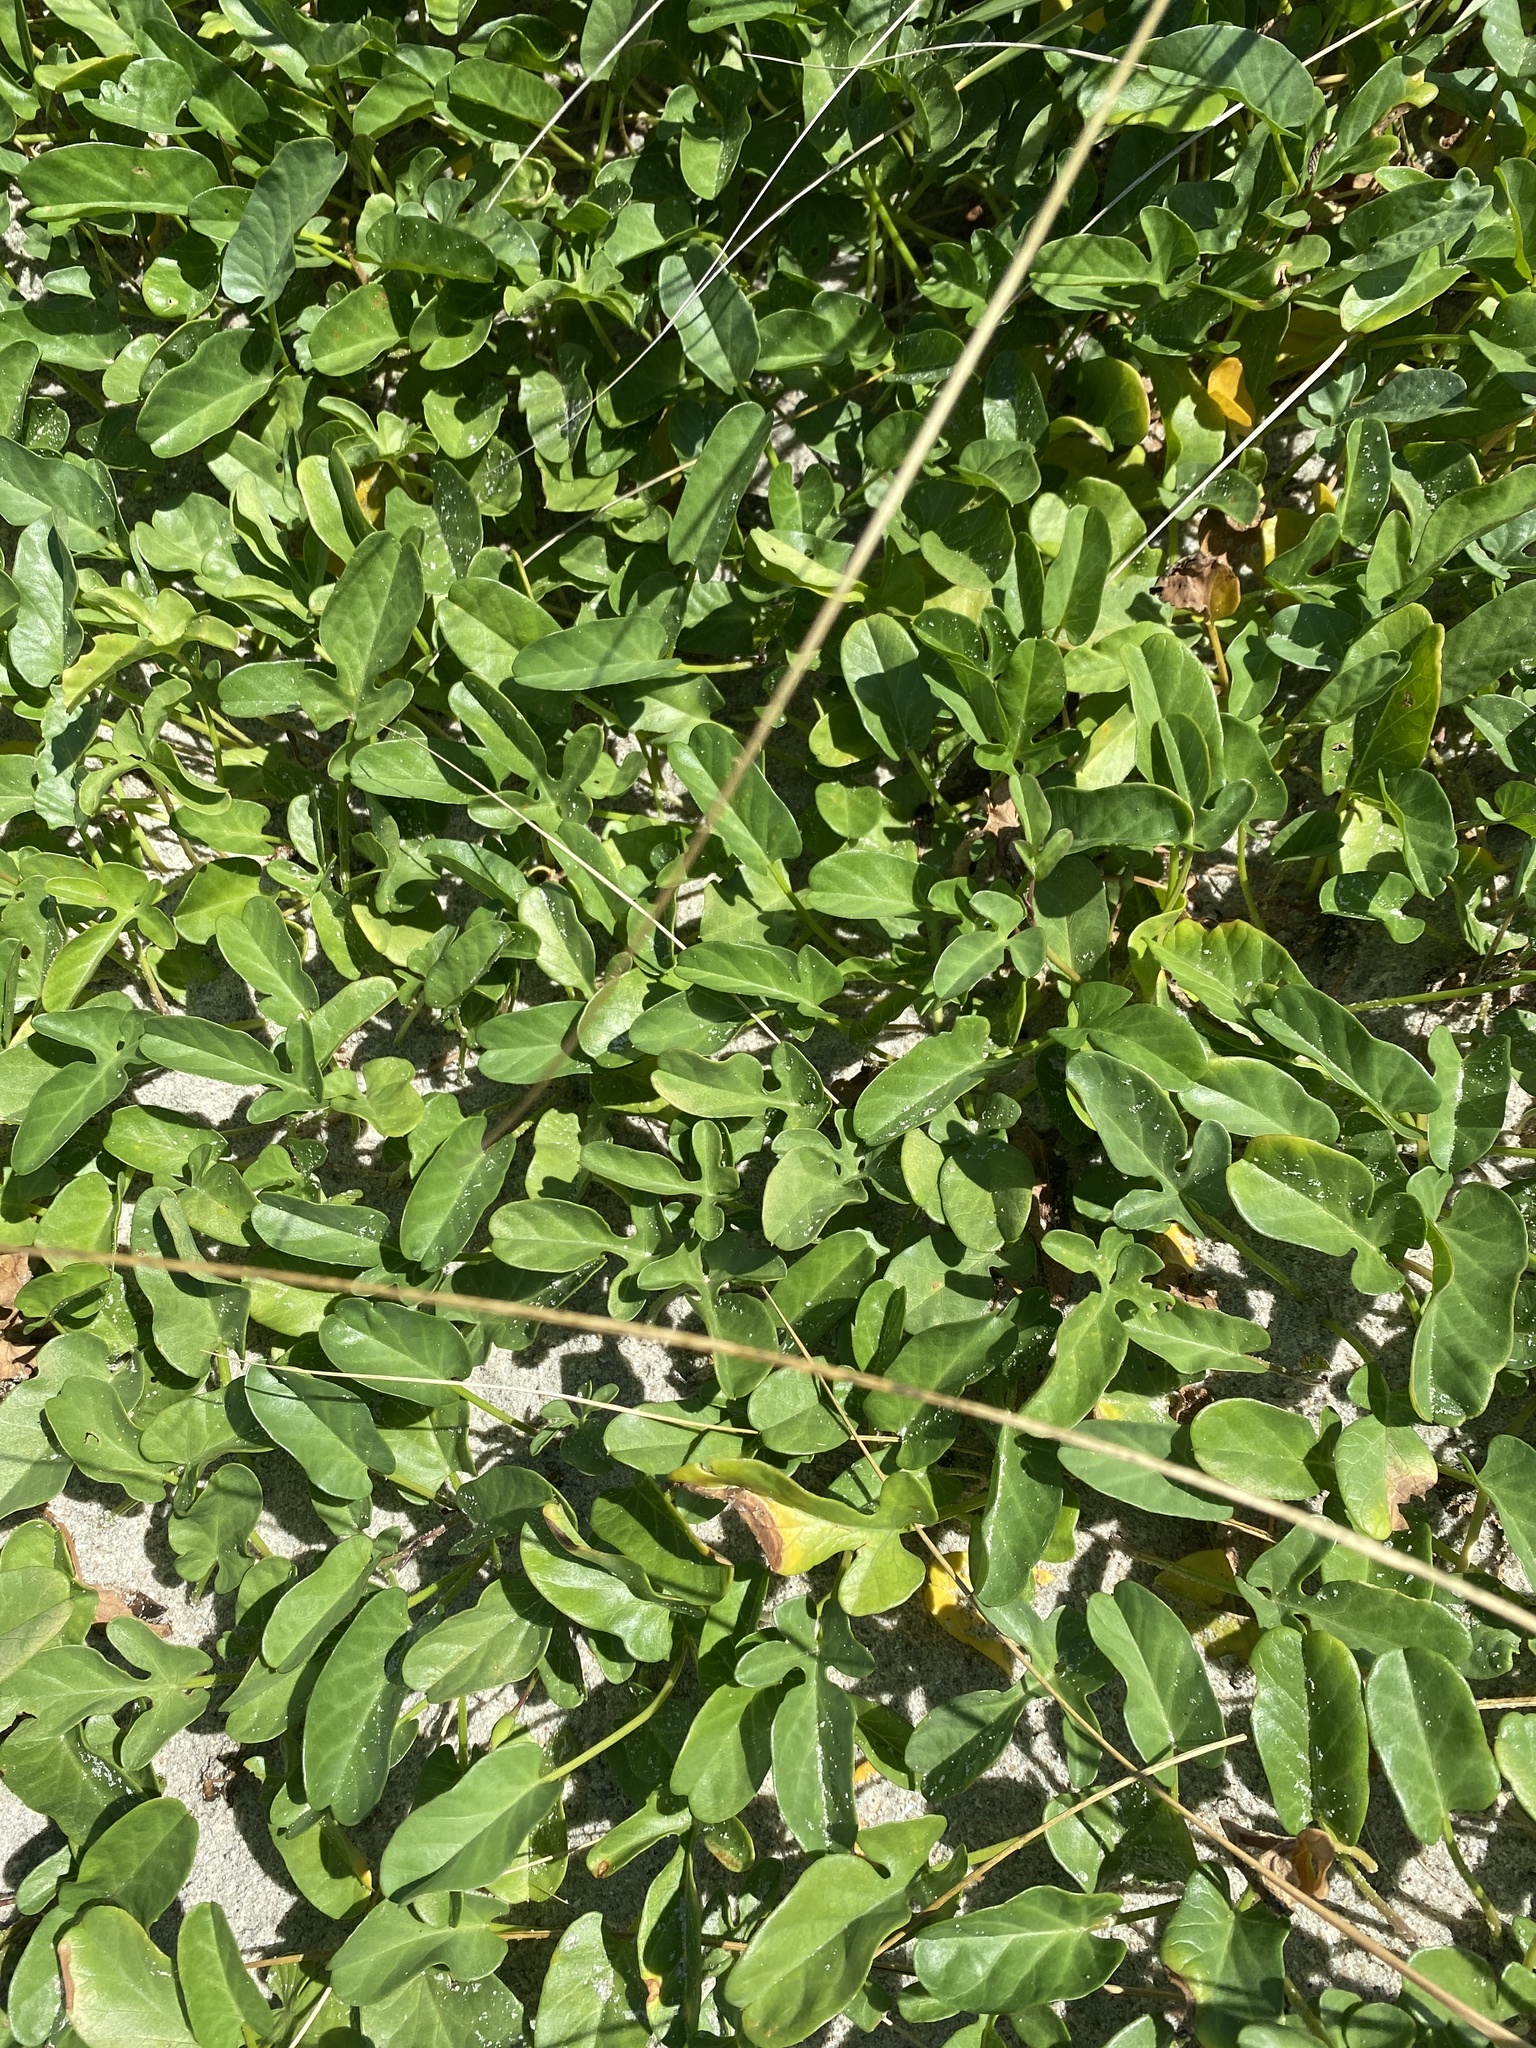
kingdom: Plantae
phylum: Tracheophyta
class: Magnoliopsida
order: Solanales
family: Convolvulaceae
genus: Ipomoea
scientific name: Ipomoea imperati
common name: Fiddle-leaf morning-glory
